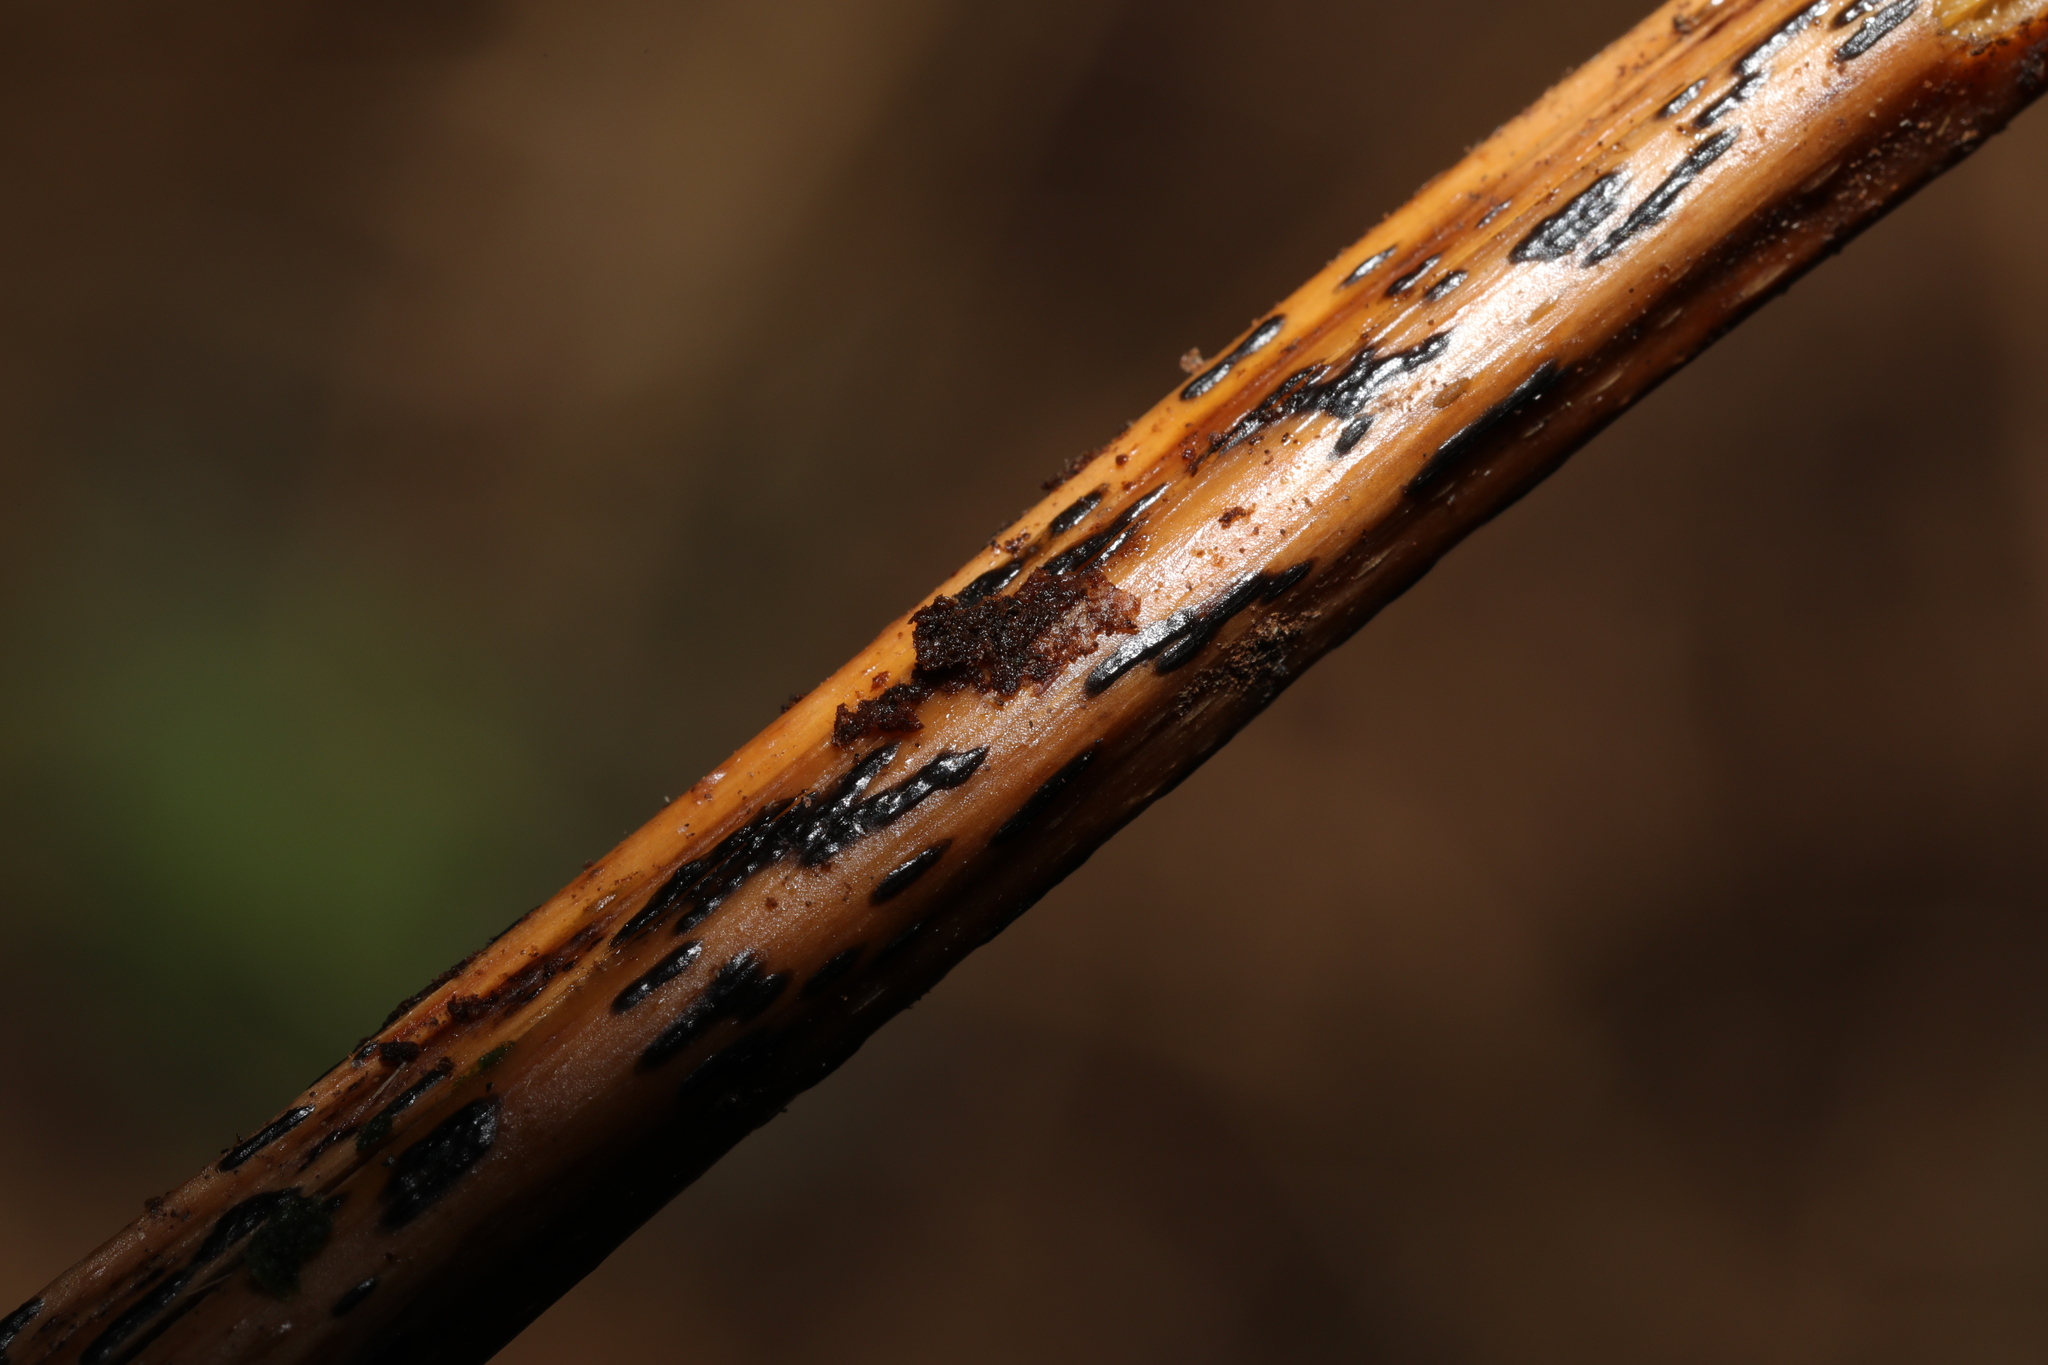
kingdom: Fungi
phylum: Ascomycota
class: Dothideomycetes
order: Pleosporales
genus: Rhopographus
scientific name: Rhopographus filicinus
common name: Bracken map
